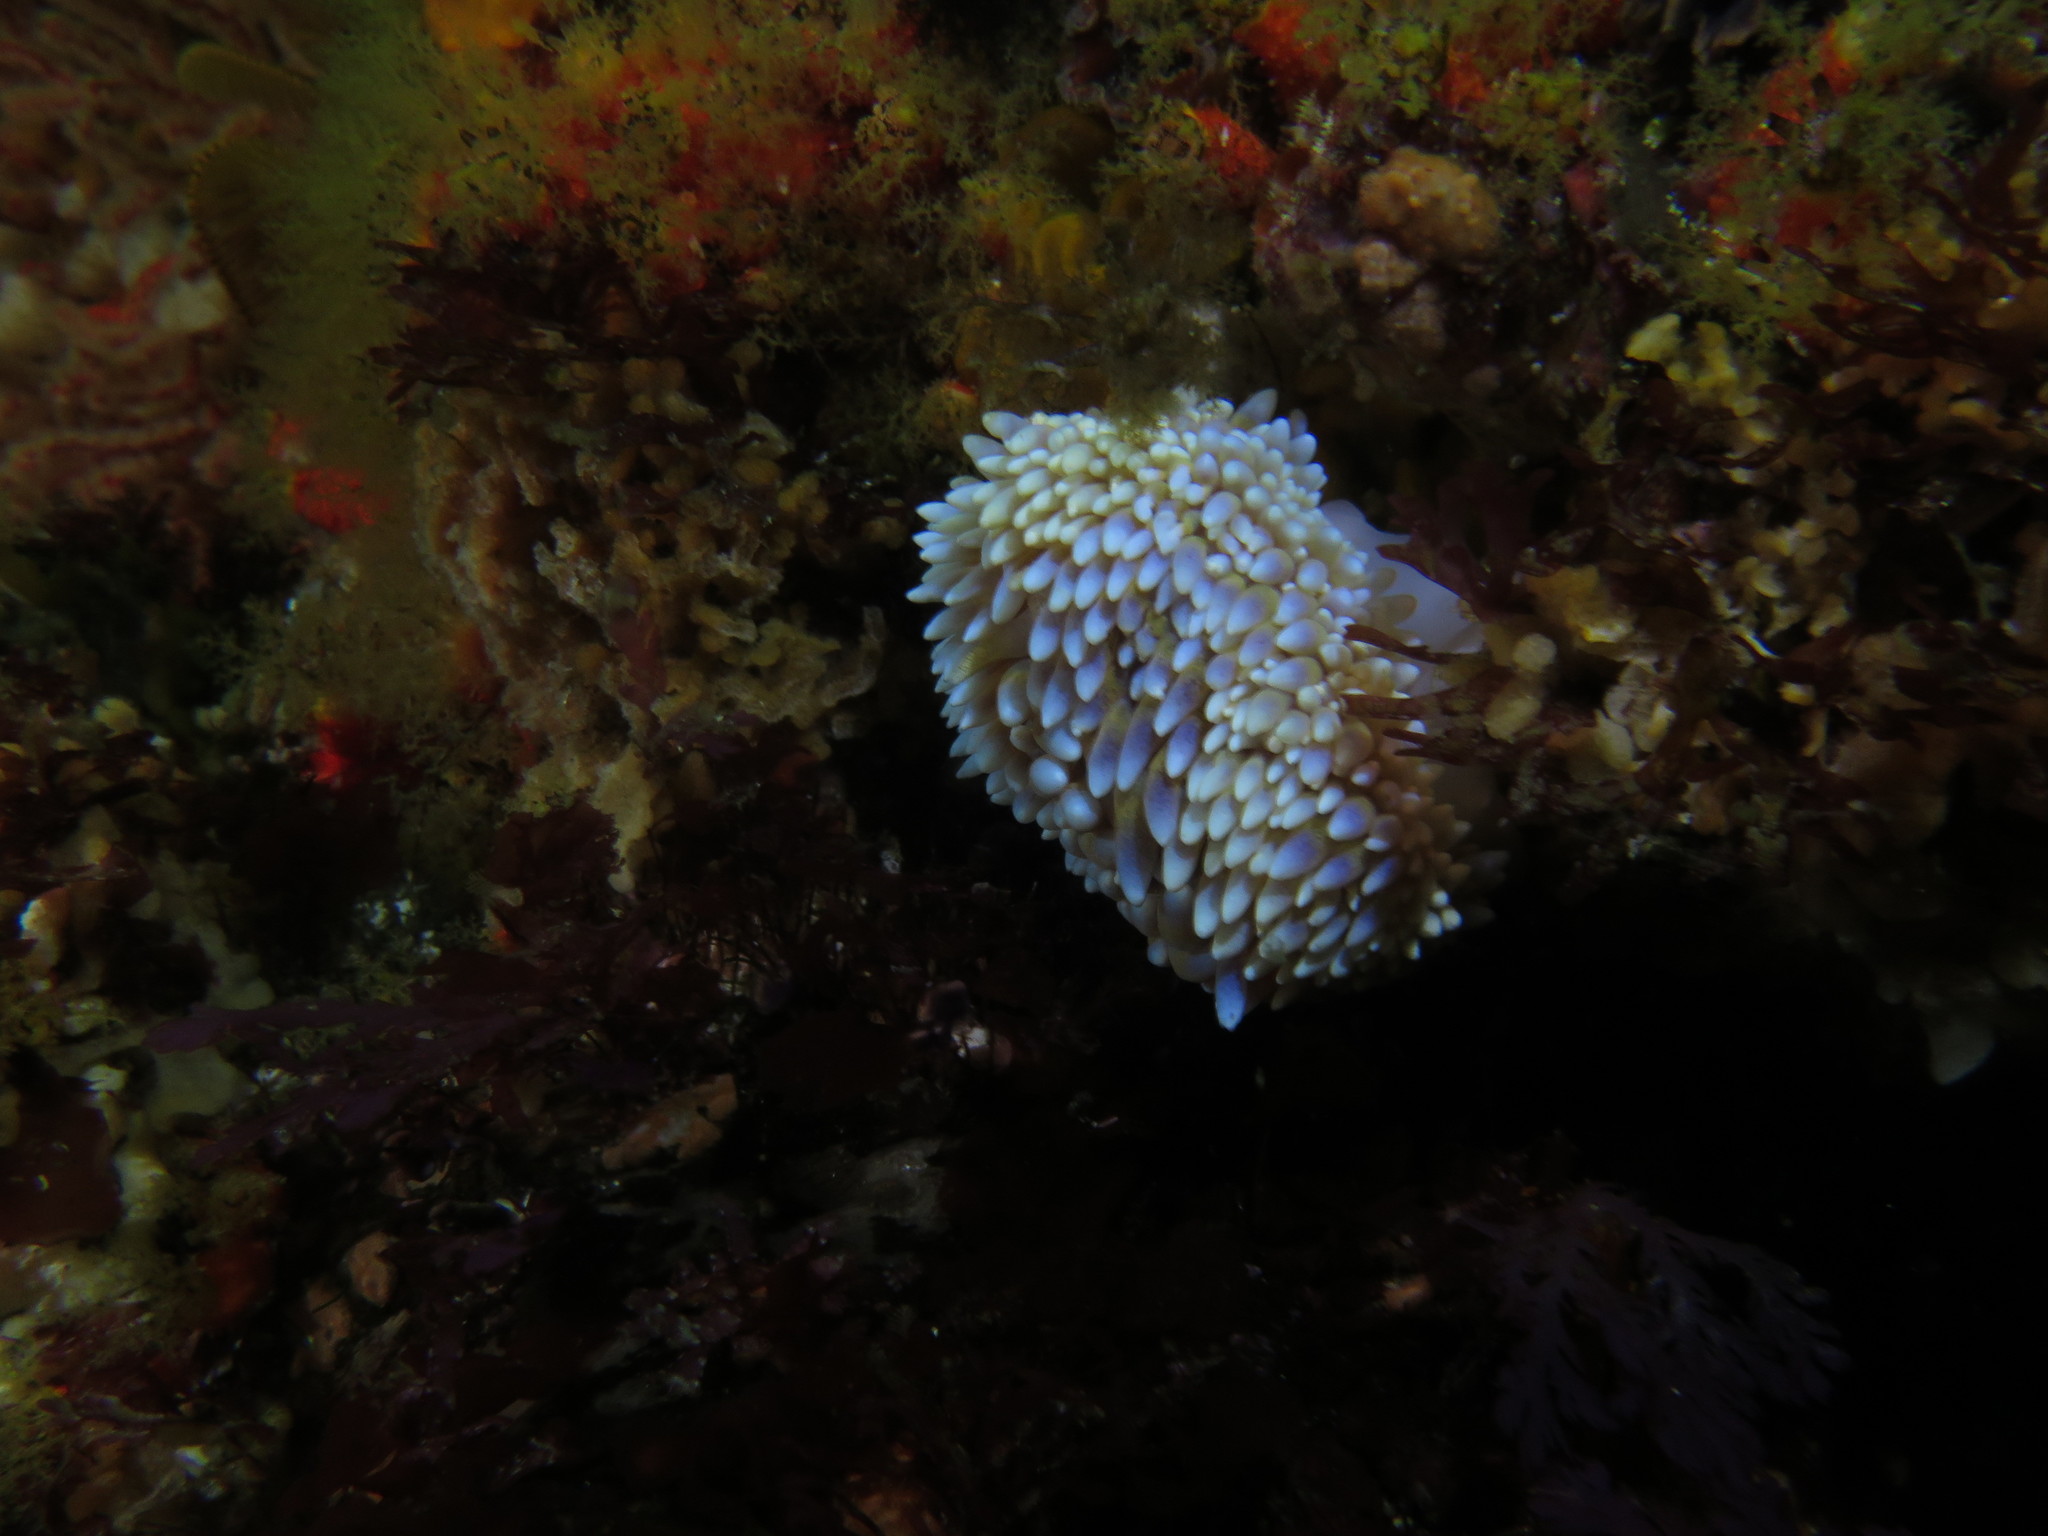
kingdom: Animalia
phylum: Mollusca
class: Gastropoda
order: Nudibranchia
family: Janolidae
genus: Bonisa
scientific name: Bonisa nakaza
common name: Gas flame nudibranch
